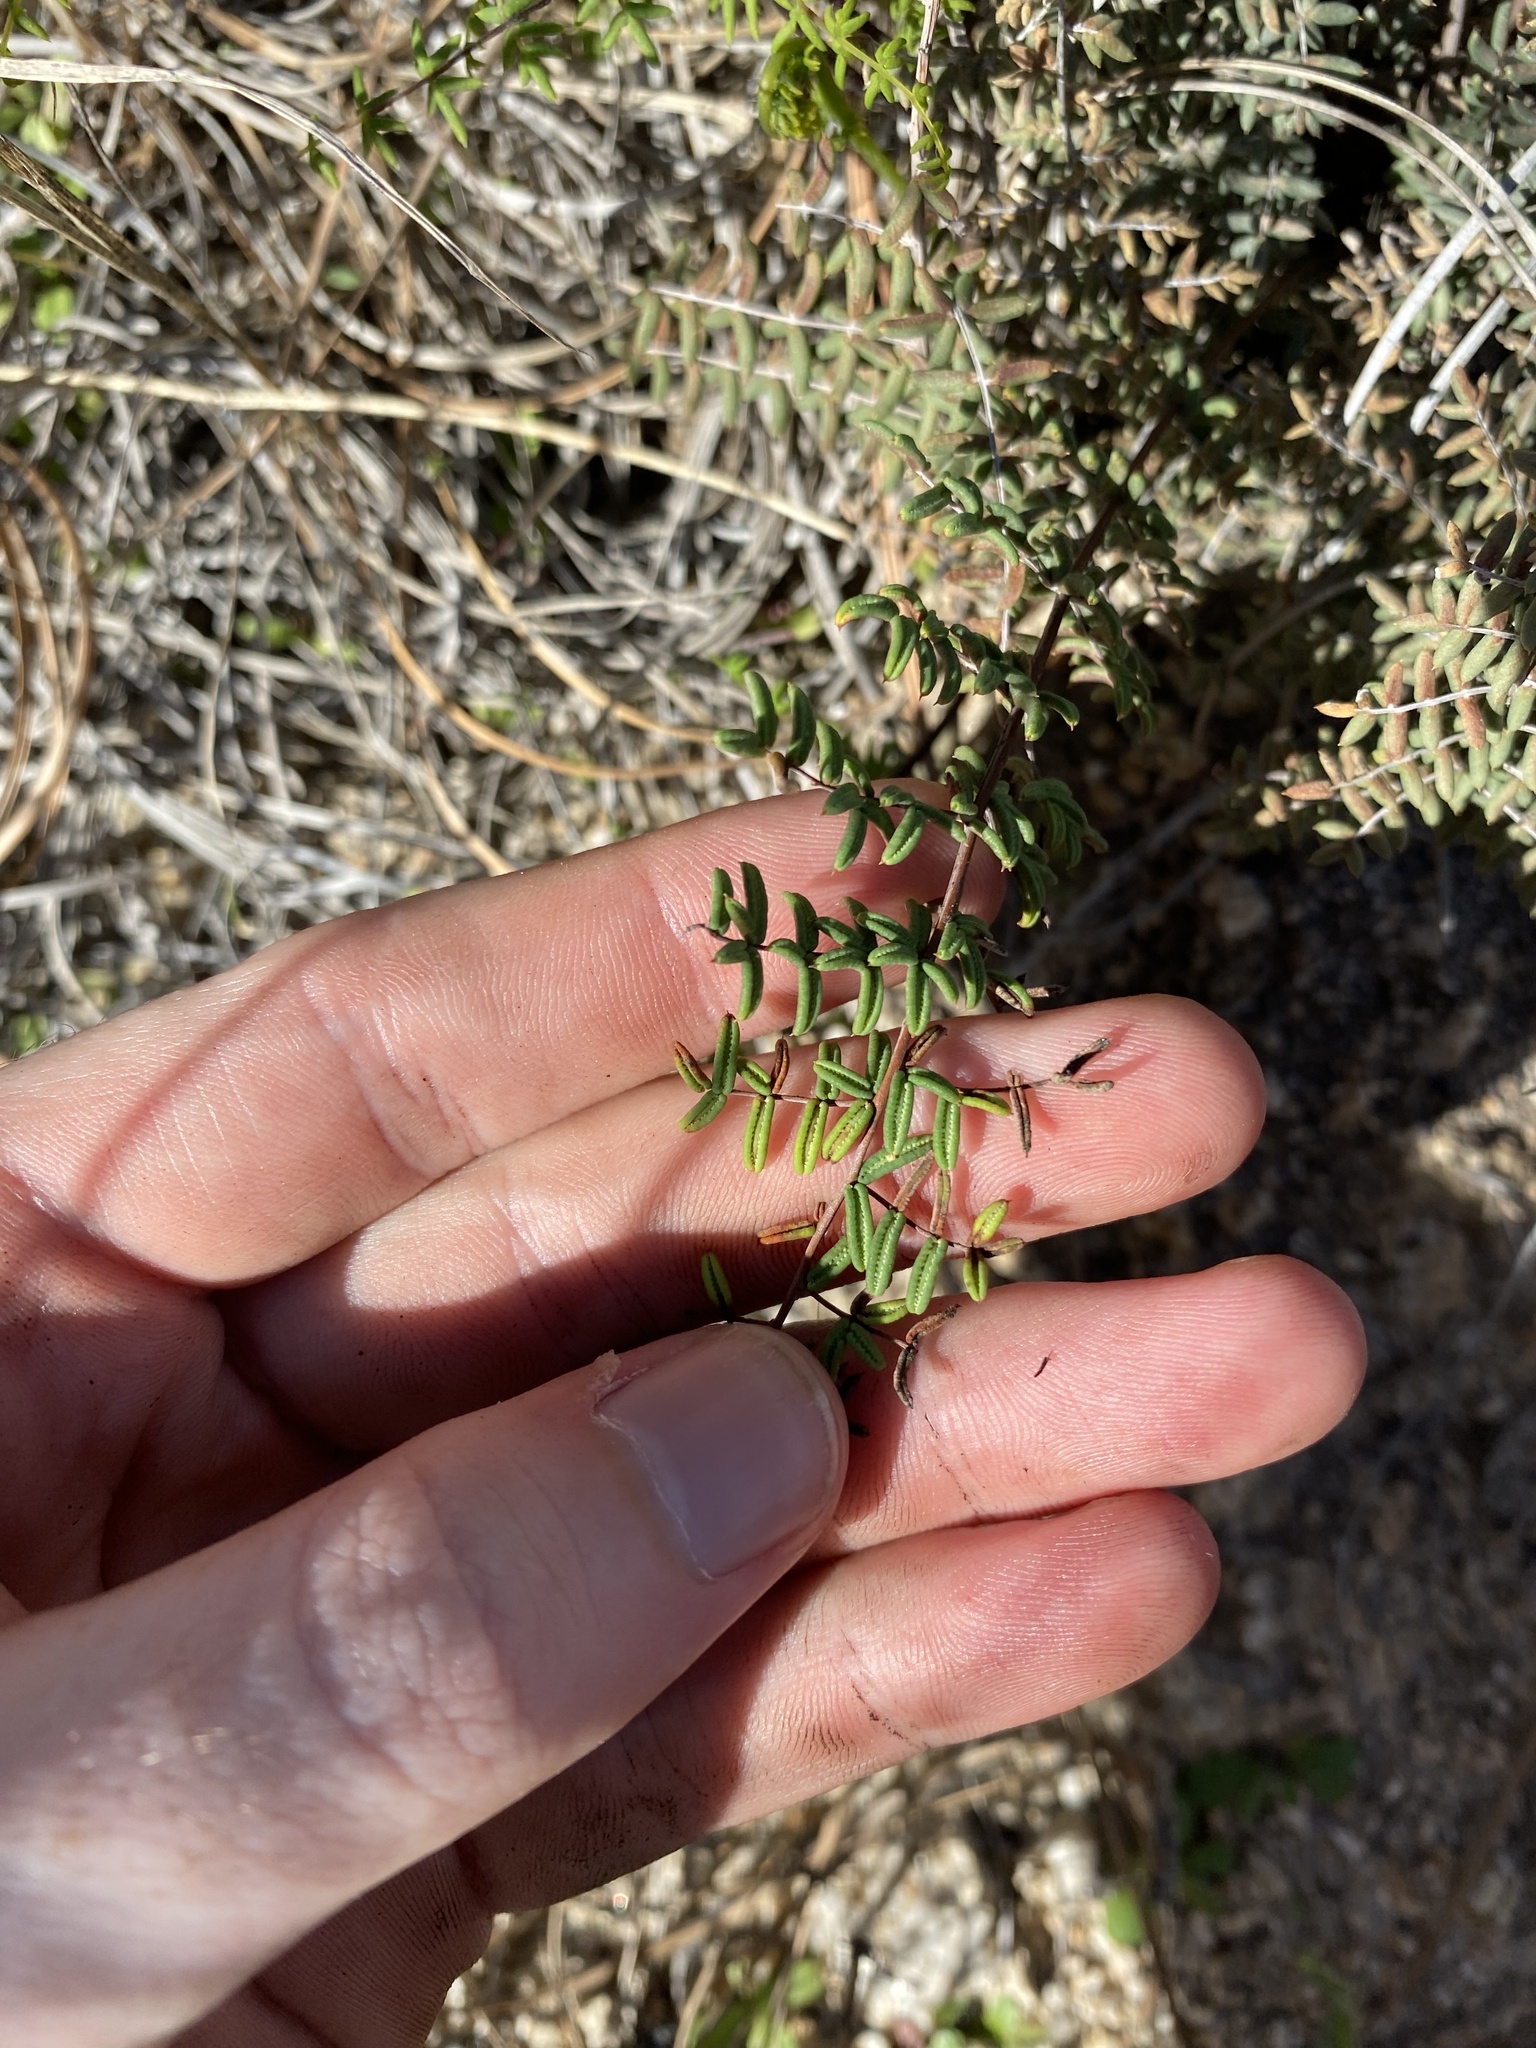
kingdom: Plantae
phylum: Tracheophyta
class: Polypodiopsida
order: Polypodiales
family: Pteridaceae
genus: Pellaea
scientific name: Pellaea mucronata
